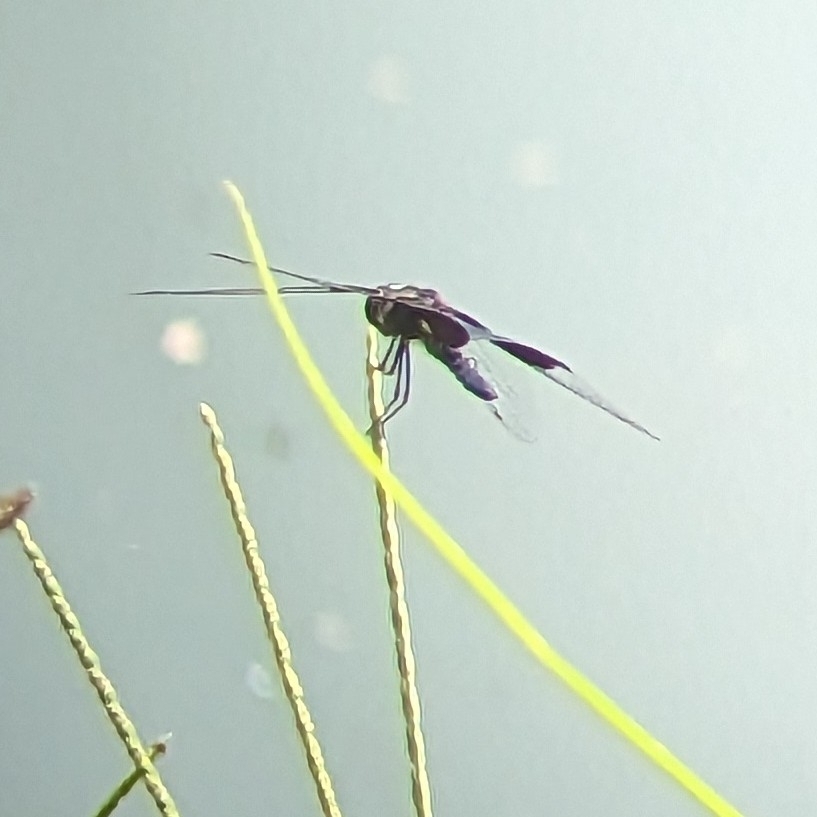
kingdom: Animalia
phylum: Arthropoda
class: Insecta
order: Odonata
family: Libellulidae
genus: Rhyothemis
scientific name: Rhyothemis triangularis
